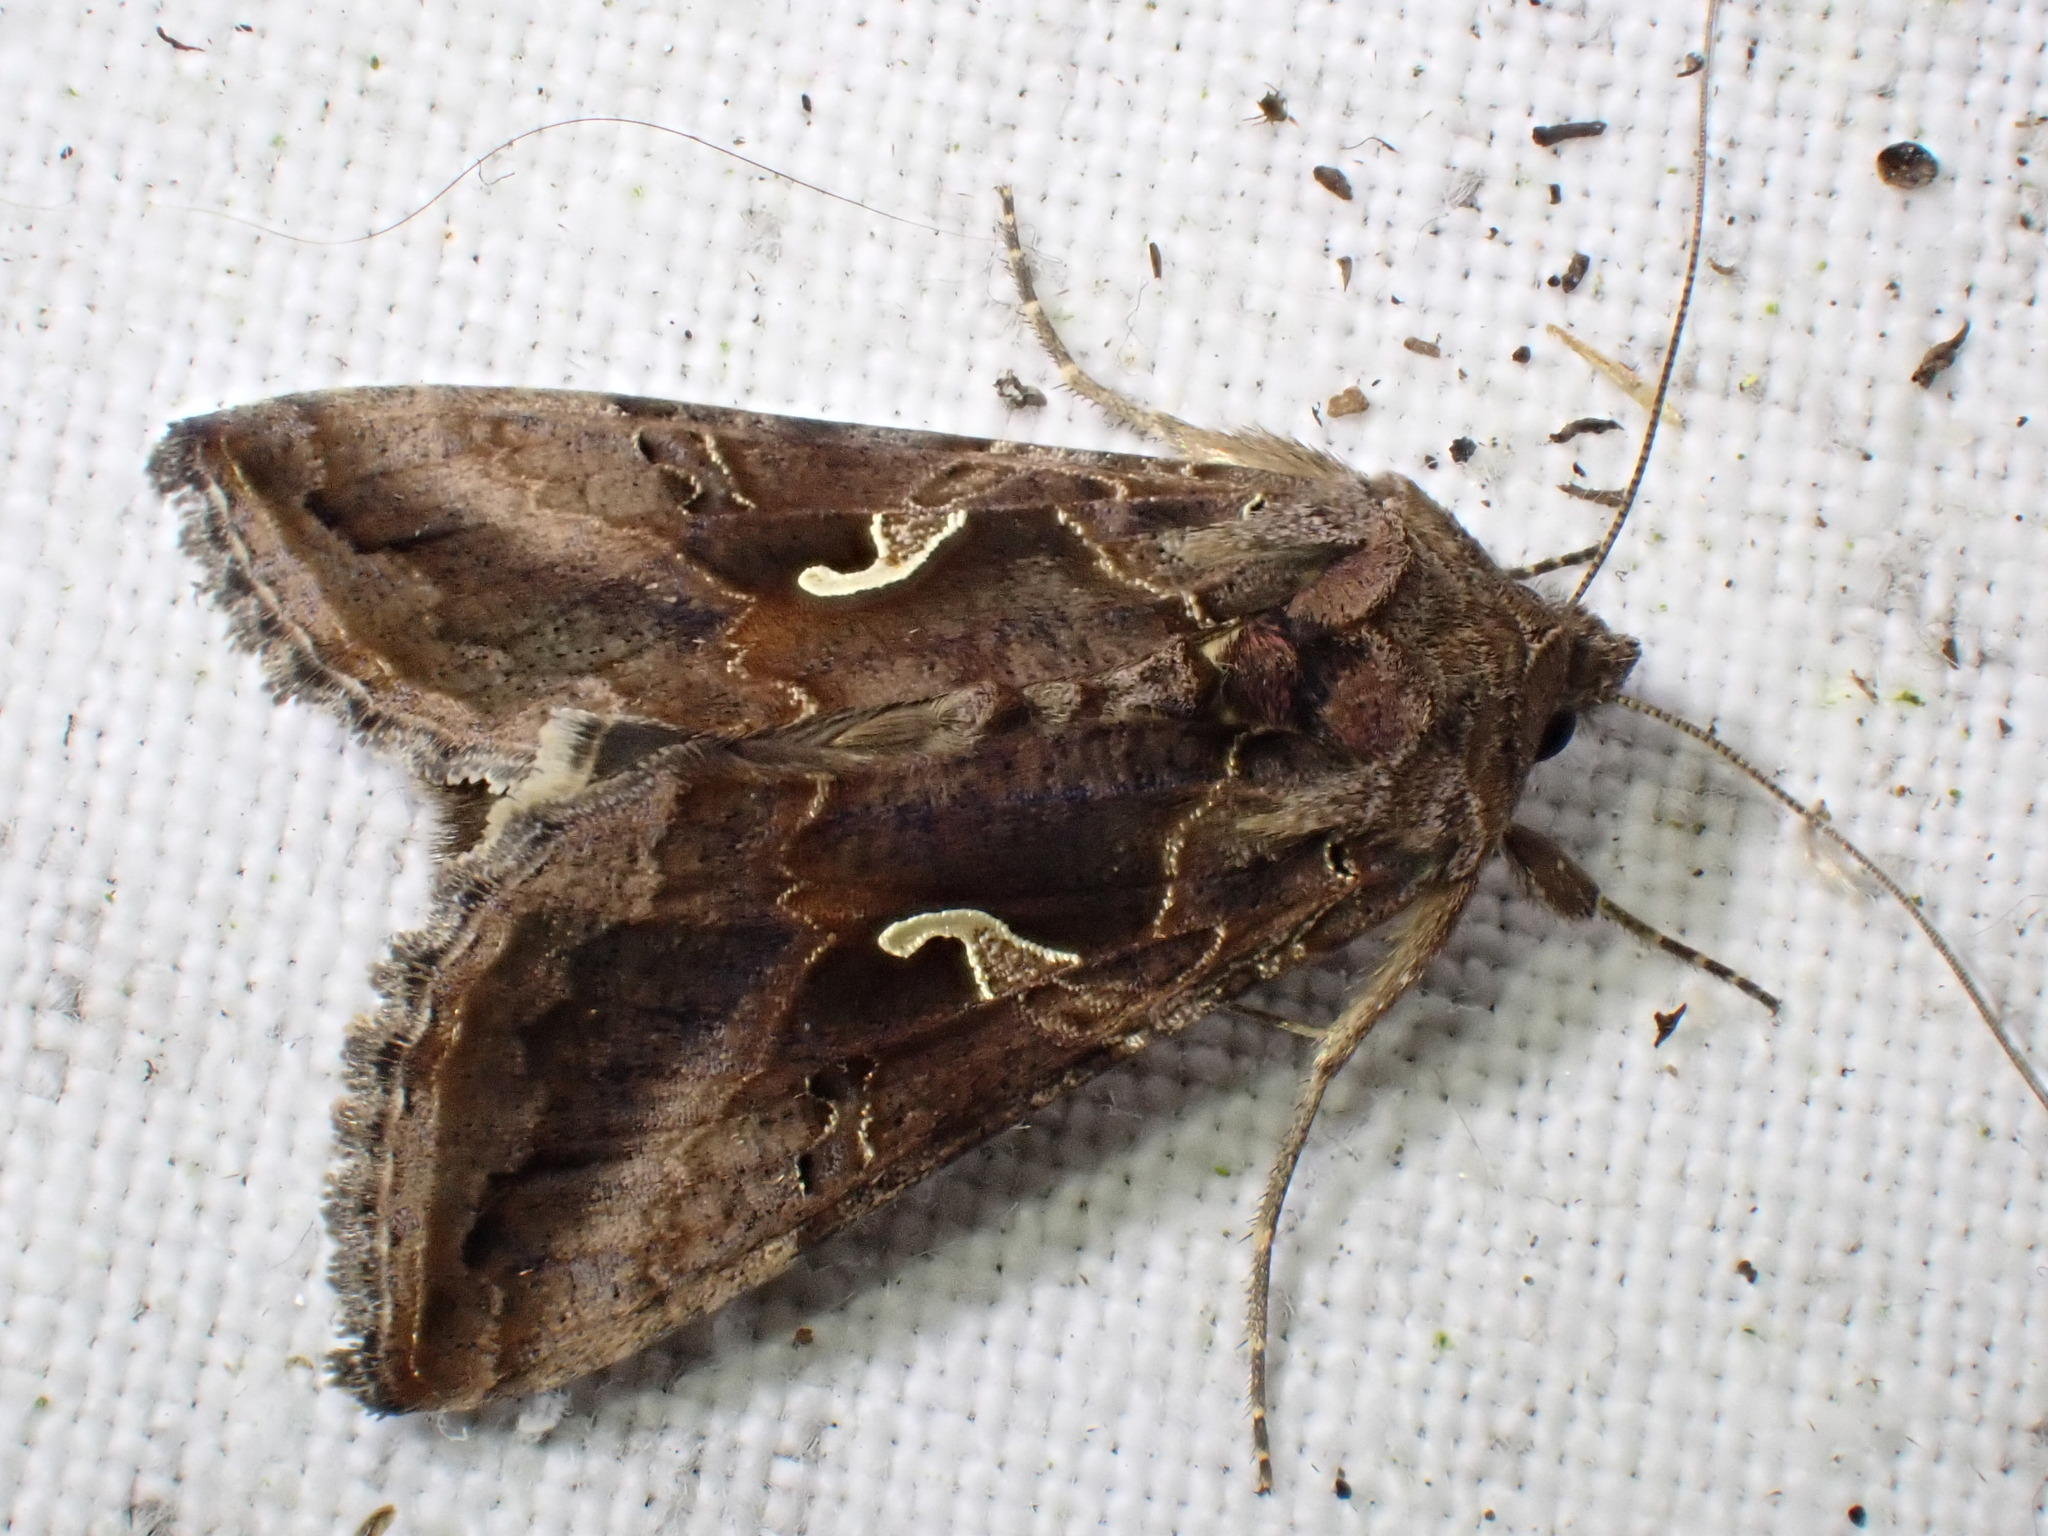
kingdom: Animalia
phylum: Arthropoda
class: Insecta
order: Lepidoptera
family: Noctuidae
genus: Autographa
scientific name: Autographa gamma
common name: Silver y
